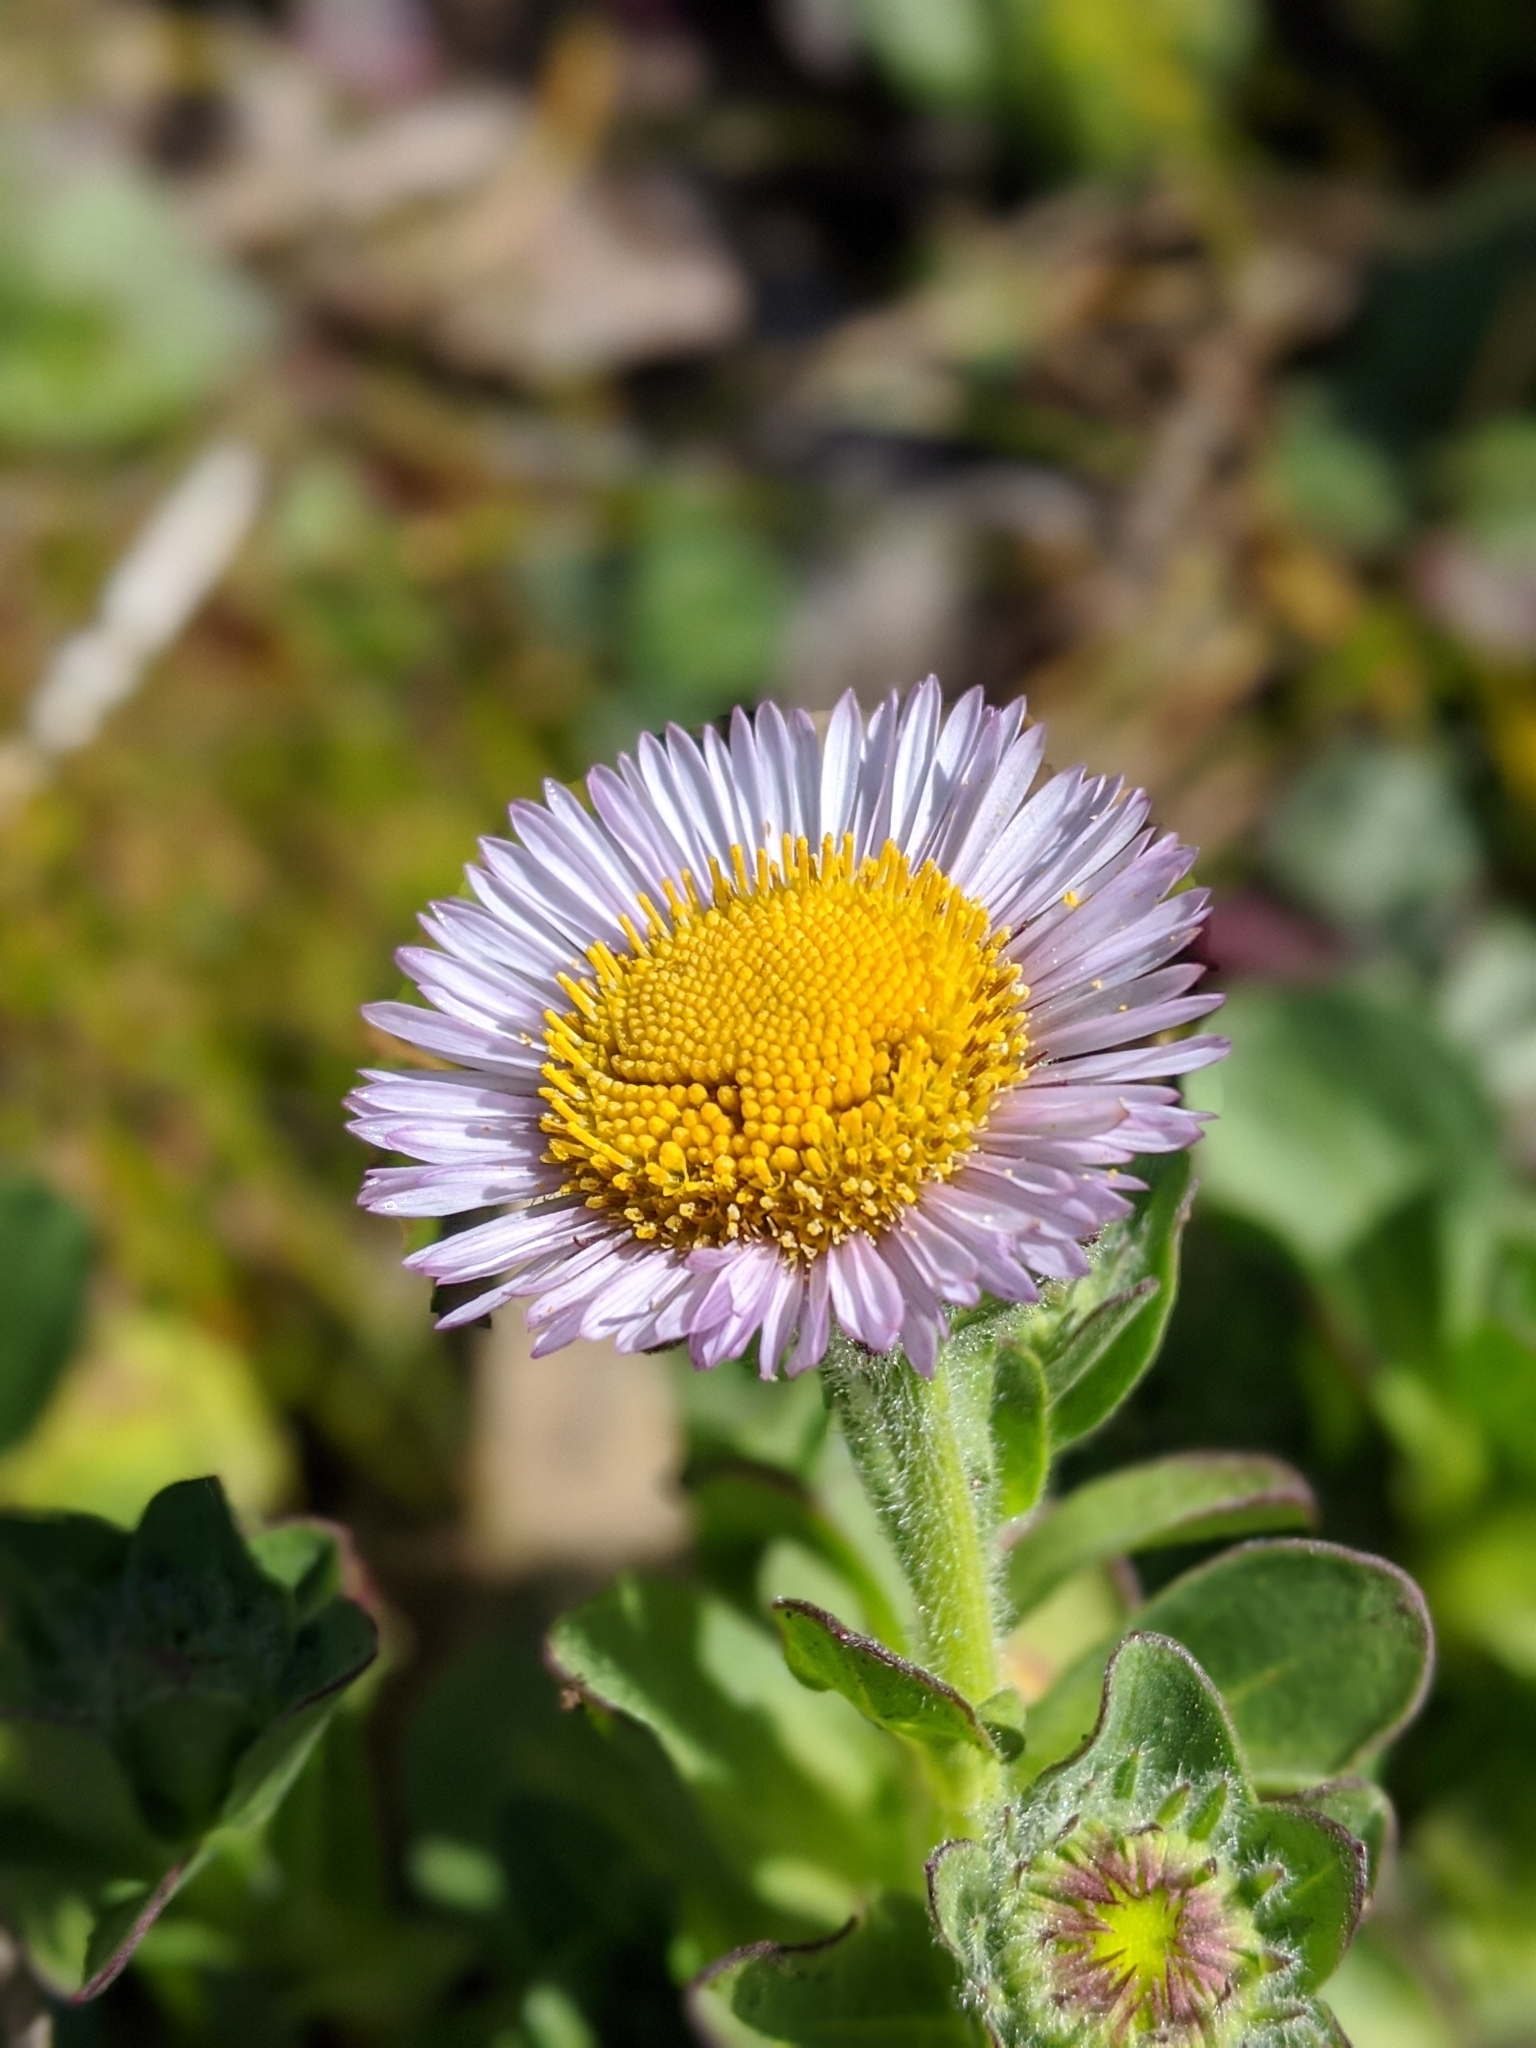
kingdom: Plantae
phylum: Tracheophyta
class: Magnoliopsida
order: Asterales
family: Asteraceae
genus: Erigeron
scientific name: Erigeron glaucus
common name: Seaside daisy
